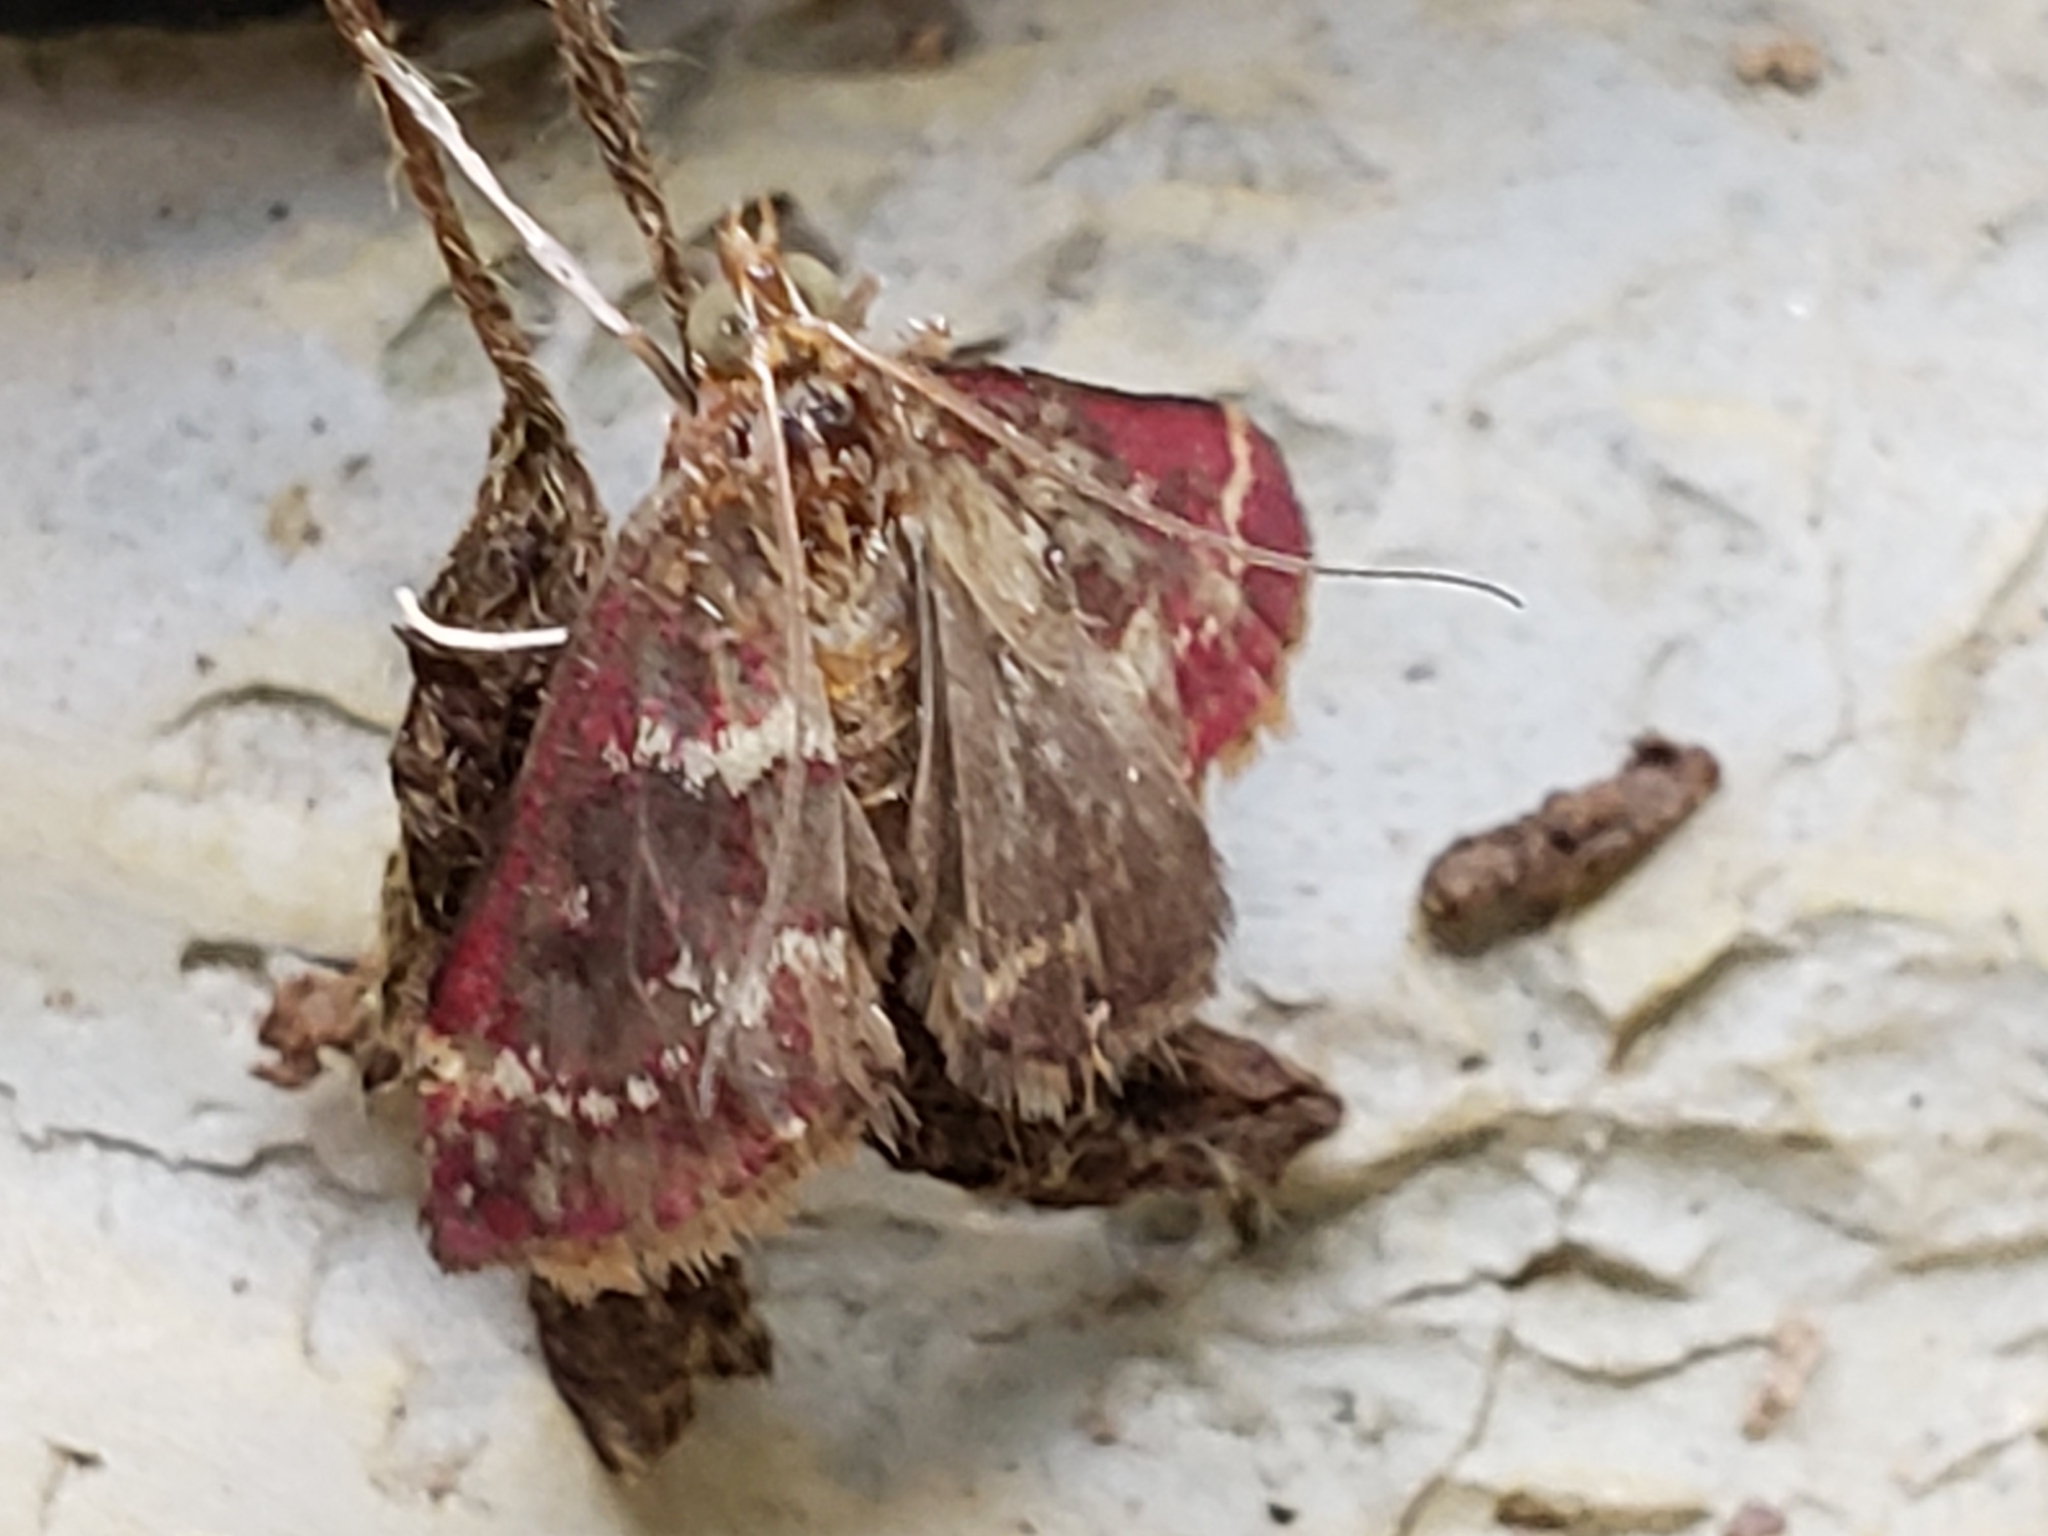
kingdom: Animalia
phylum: Arthropoda
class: Insecta
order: Lepidoptera
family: Crambidae
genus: Pyrausta
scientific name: Pyrausta signatalis
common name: Raspberry pyrausta moth
